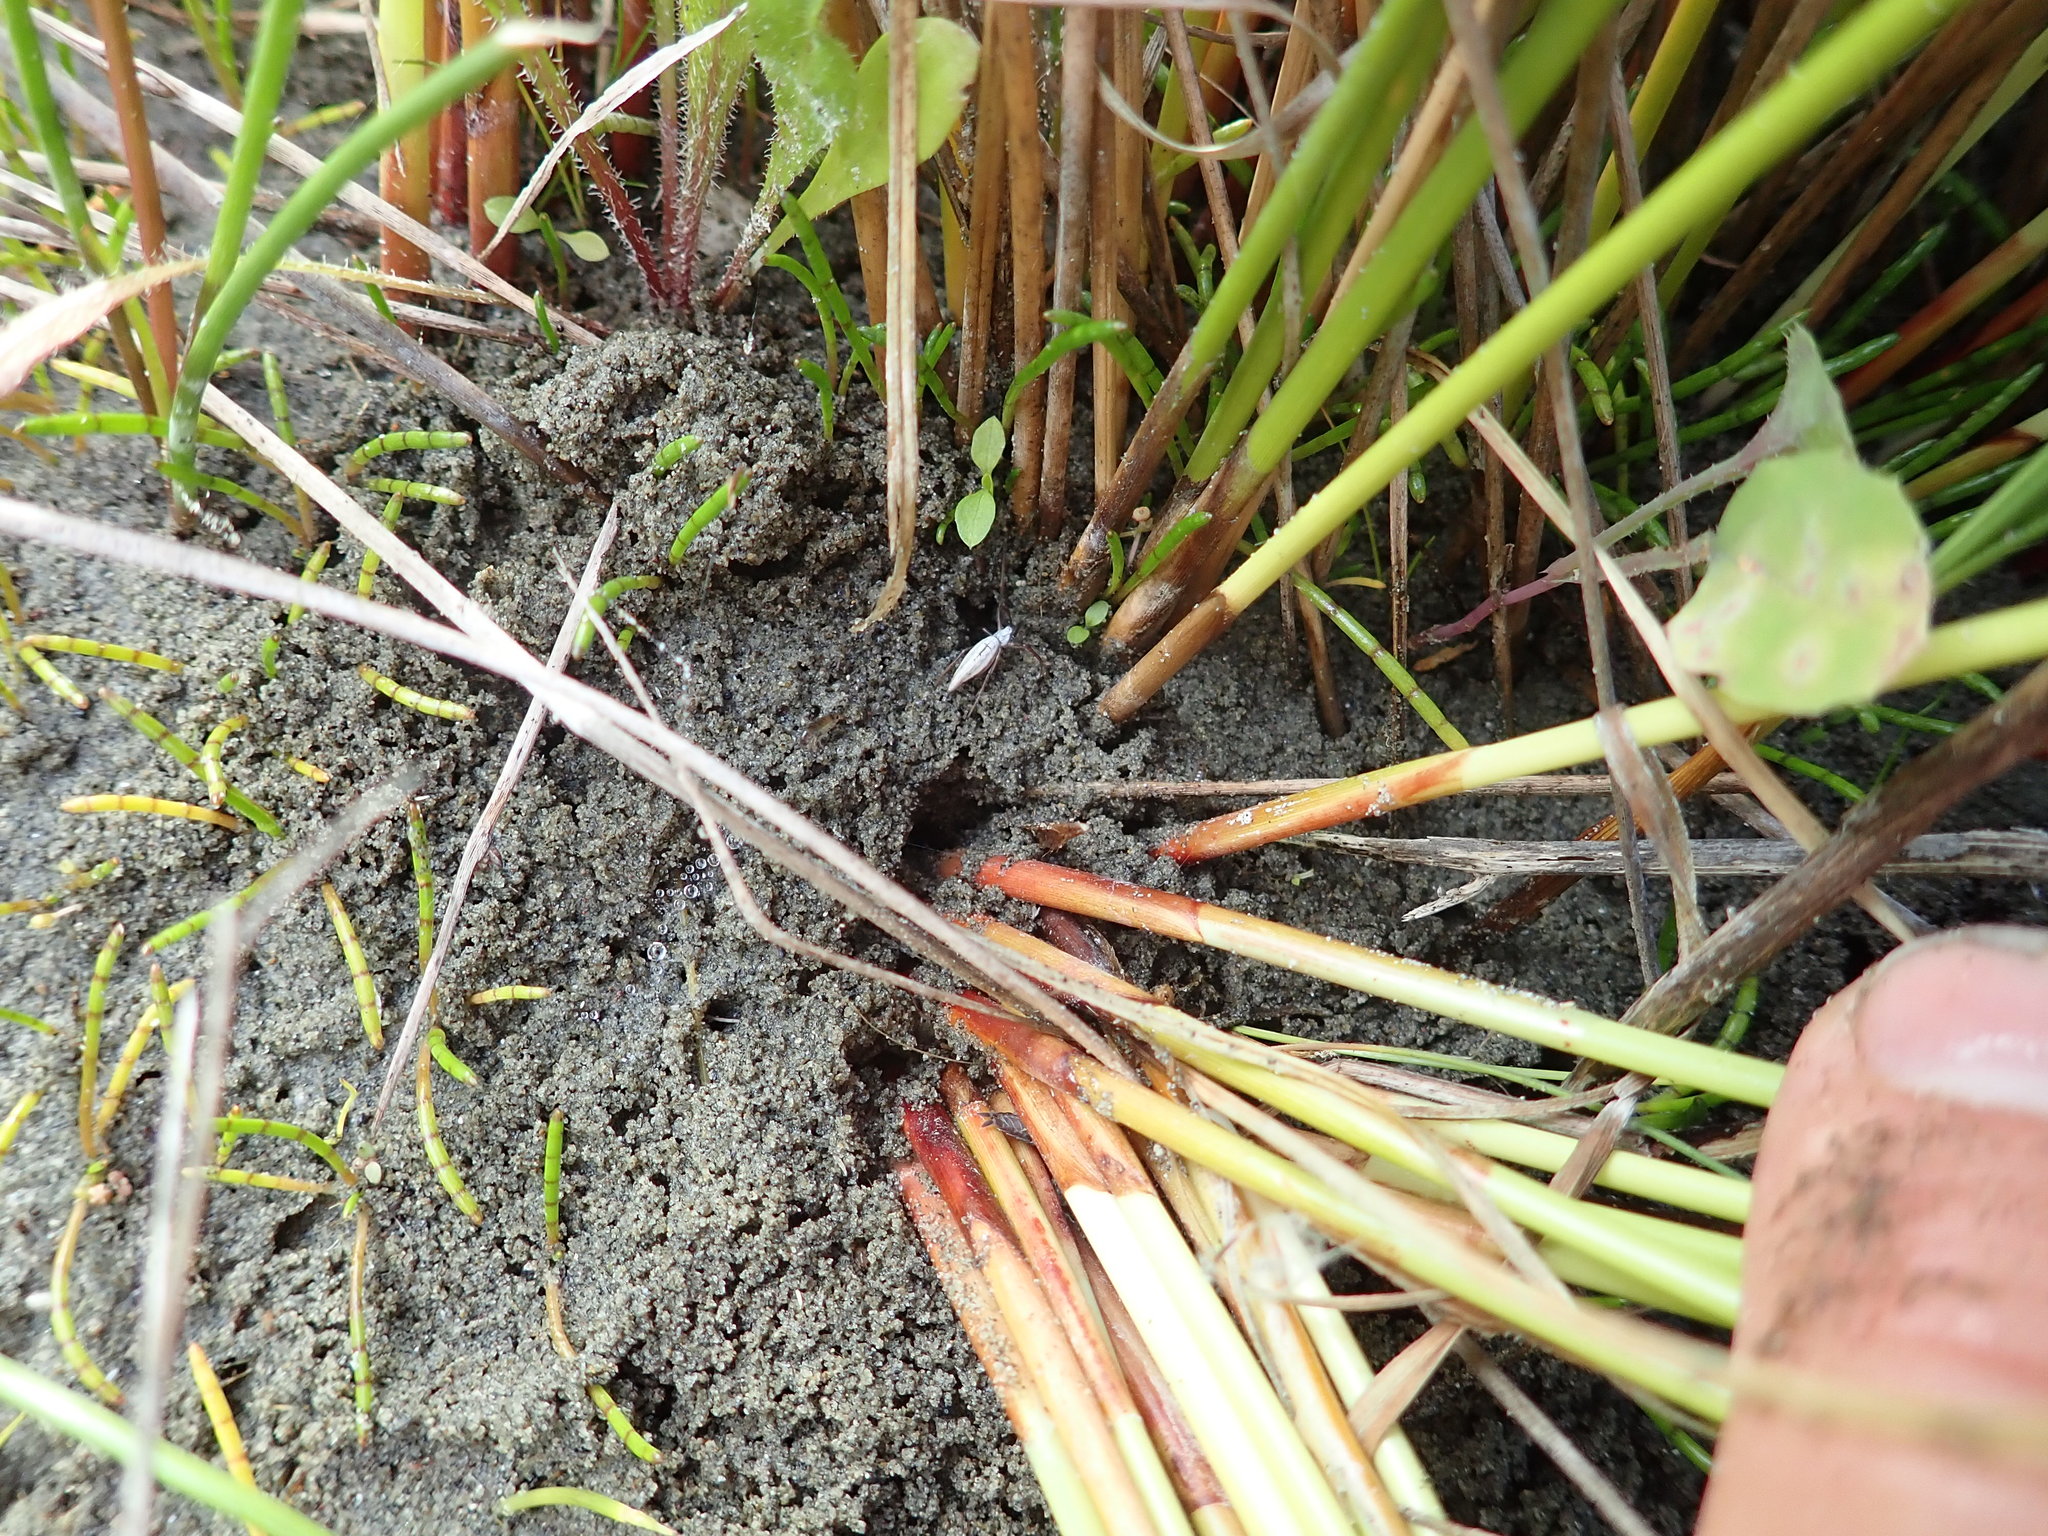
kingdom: Animalia
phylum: Arthropoda
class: Arachnida
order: Araneae
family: Araneidae
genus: Argiope
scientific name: Argiope protensa
